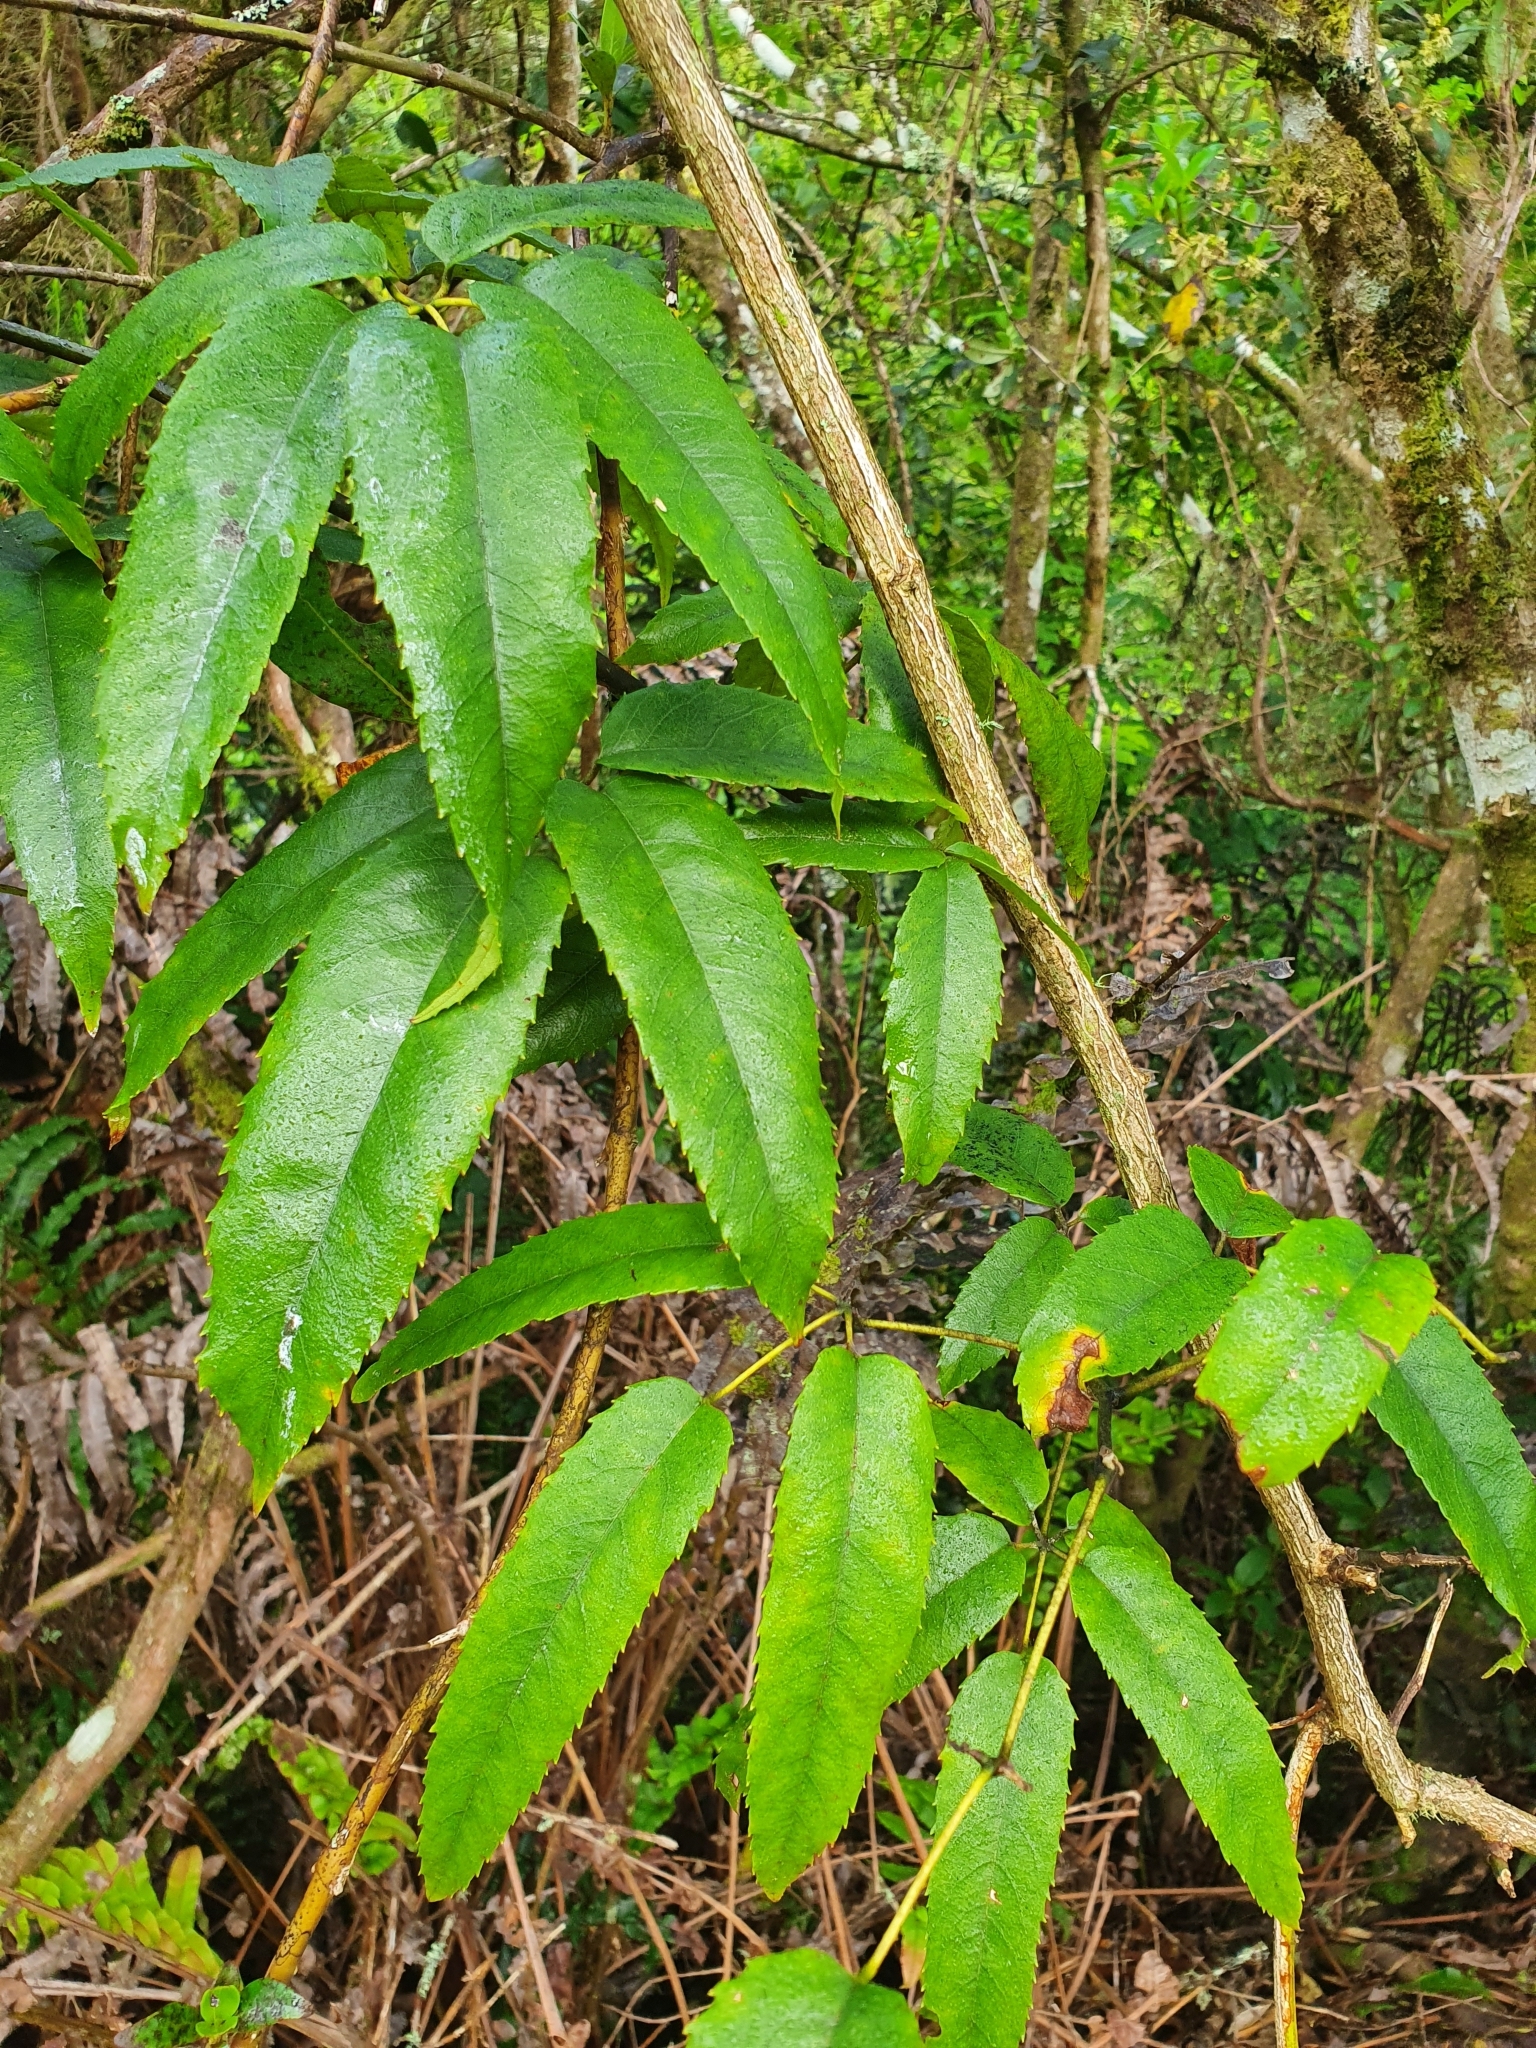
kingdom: Plantae
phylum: Tracheophyta
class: Magnoliopsida
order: Rosales
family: Rosaceae
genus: Rubus
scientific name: Rubus cissoides
